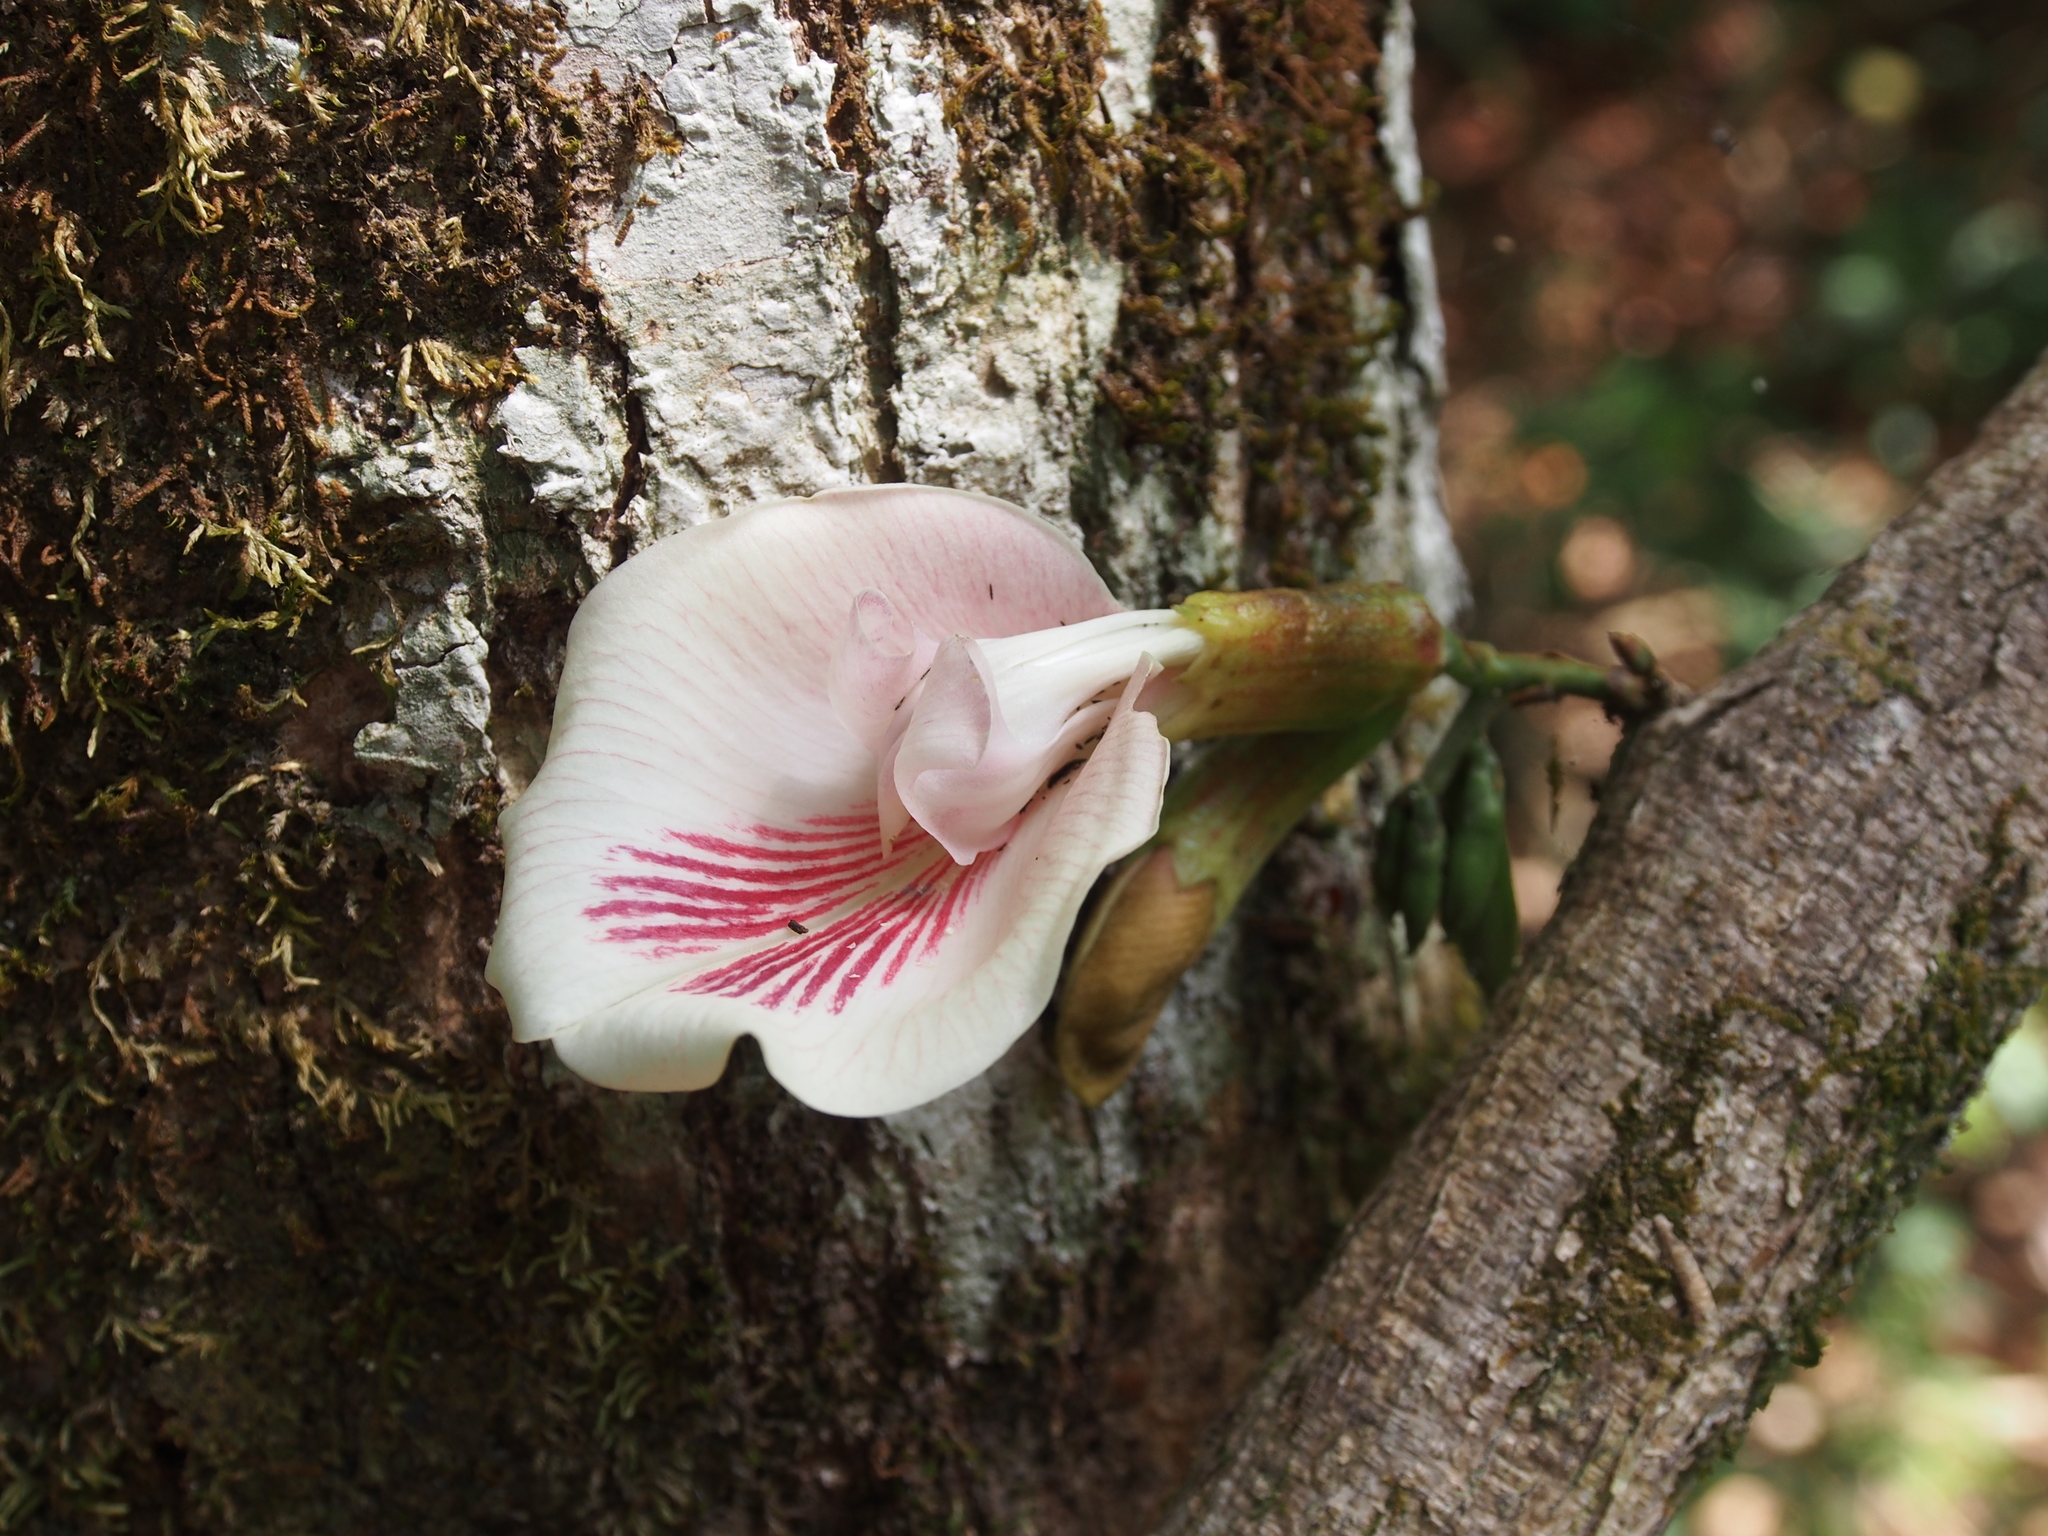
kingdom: Plantae
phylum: Tracheophyta
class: Magnoliopsida
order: Fabales
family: Fabaceae
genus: Clitoria
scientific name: Clitoria javitensis
